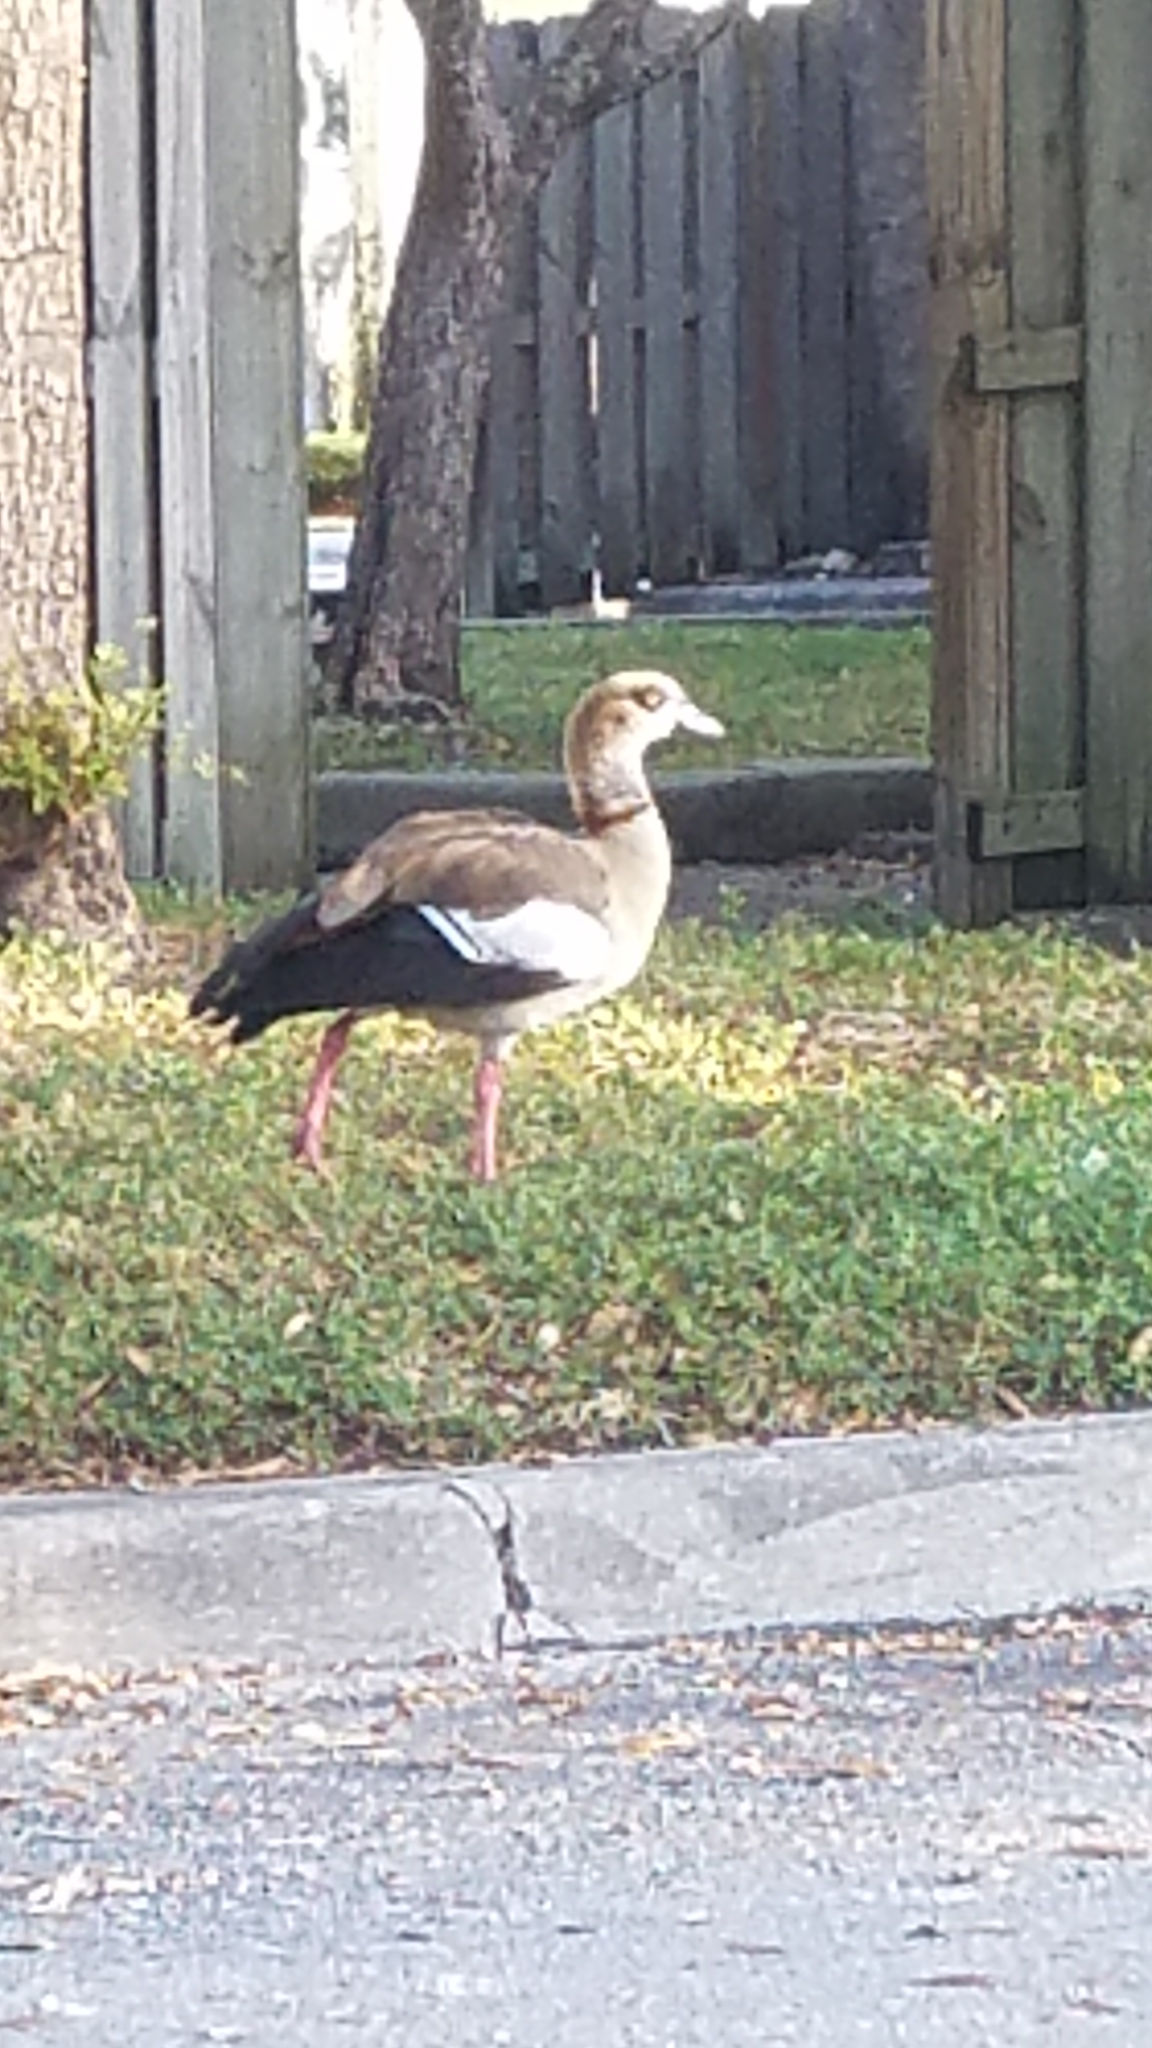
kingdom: Animalia
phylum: Chordata
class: Aves
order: Anseriformes
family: Anatidae
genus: Alopochen
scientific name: Alopochen aegyptiaca
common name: Egyptian goose
